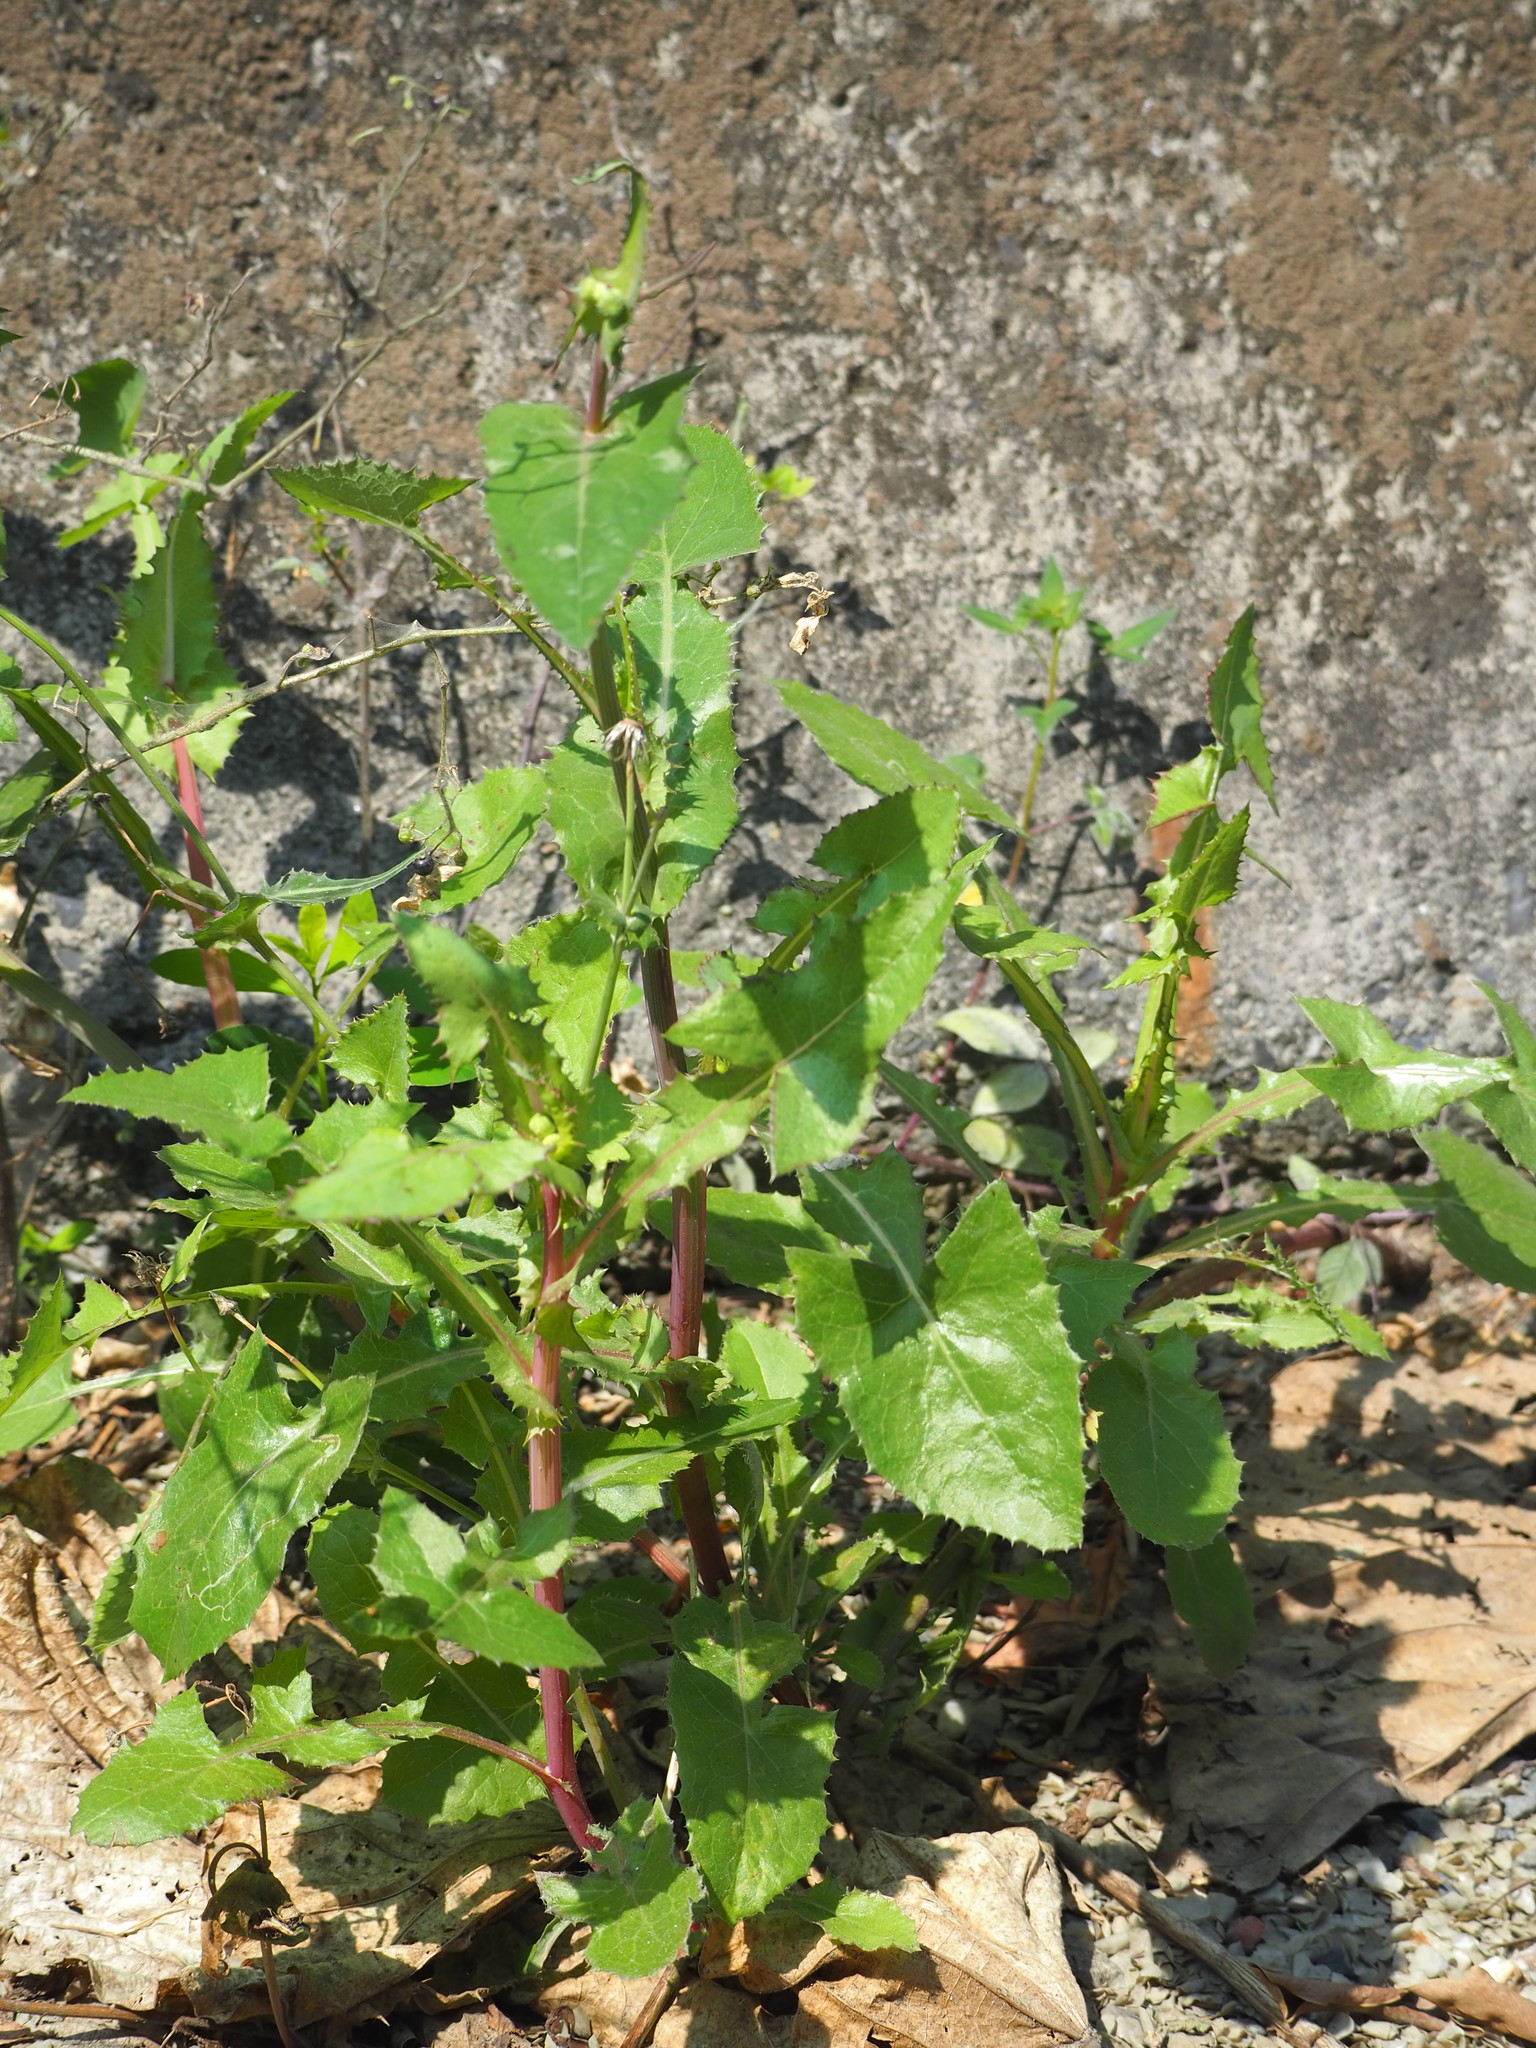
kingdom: Plantae
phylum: Tracheophyta
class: Magnoliopsida
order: Asterales
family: Asteraceae
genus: Sonchus
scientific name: Sonchus oleraceus
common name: Common sowthistle
